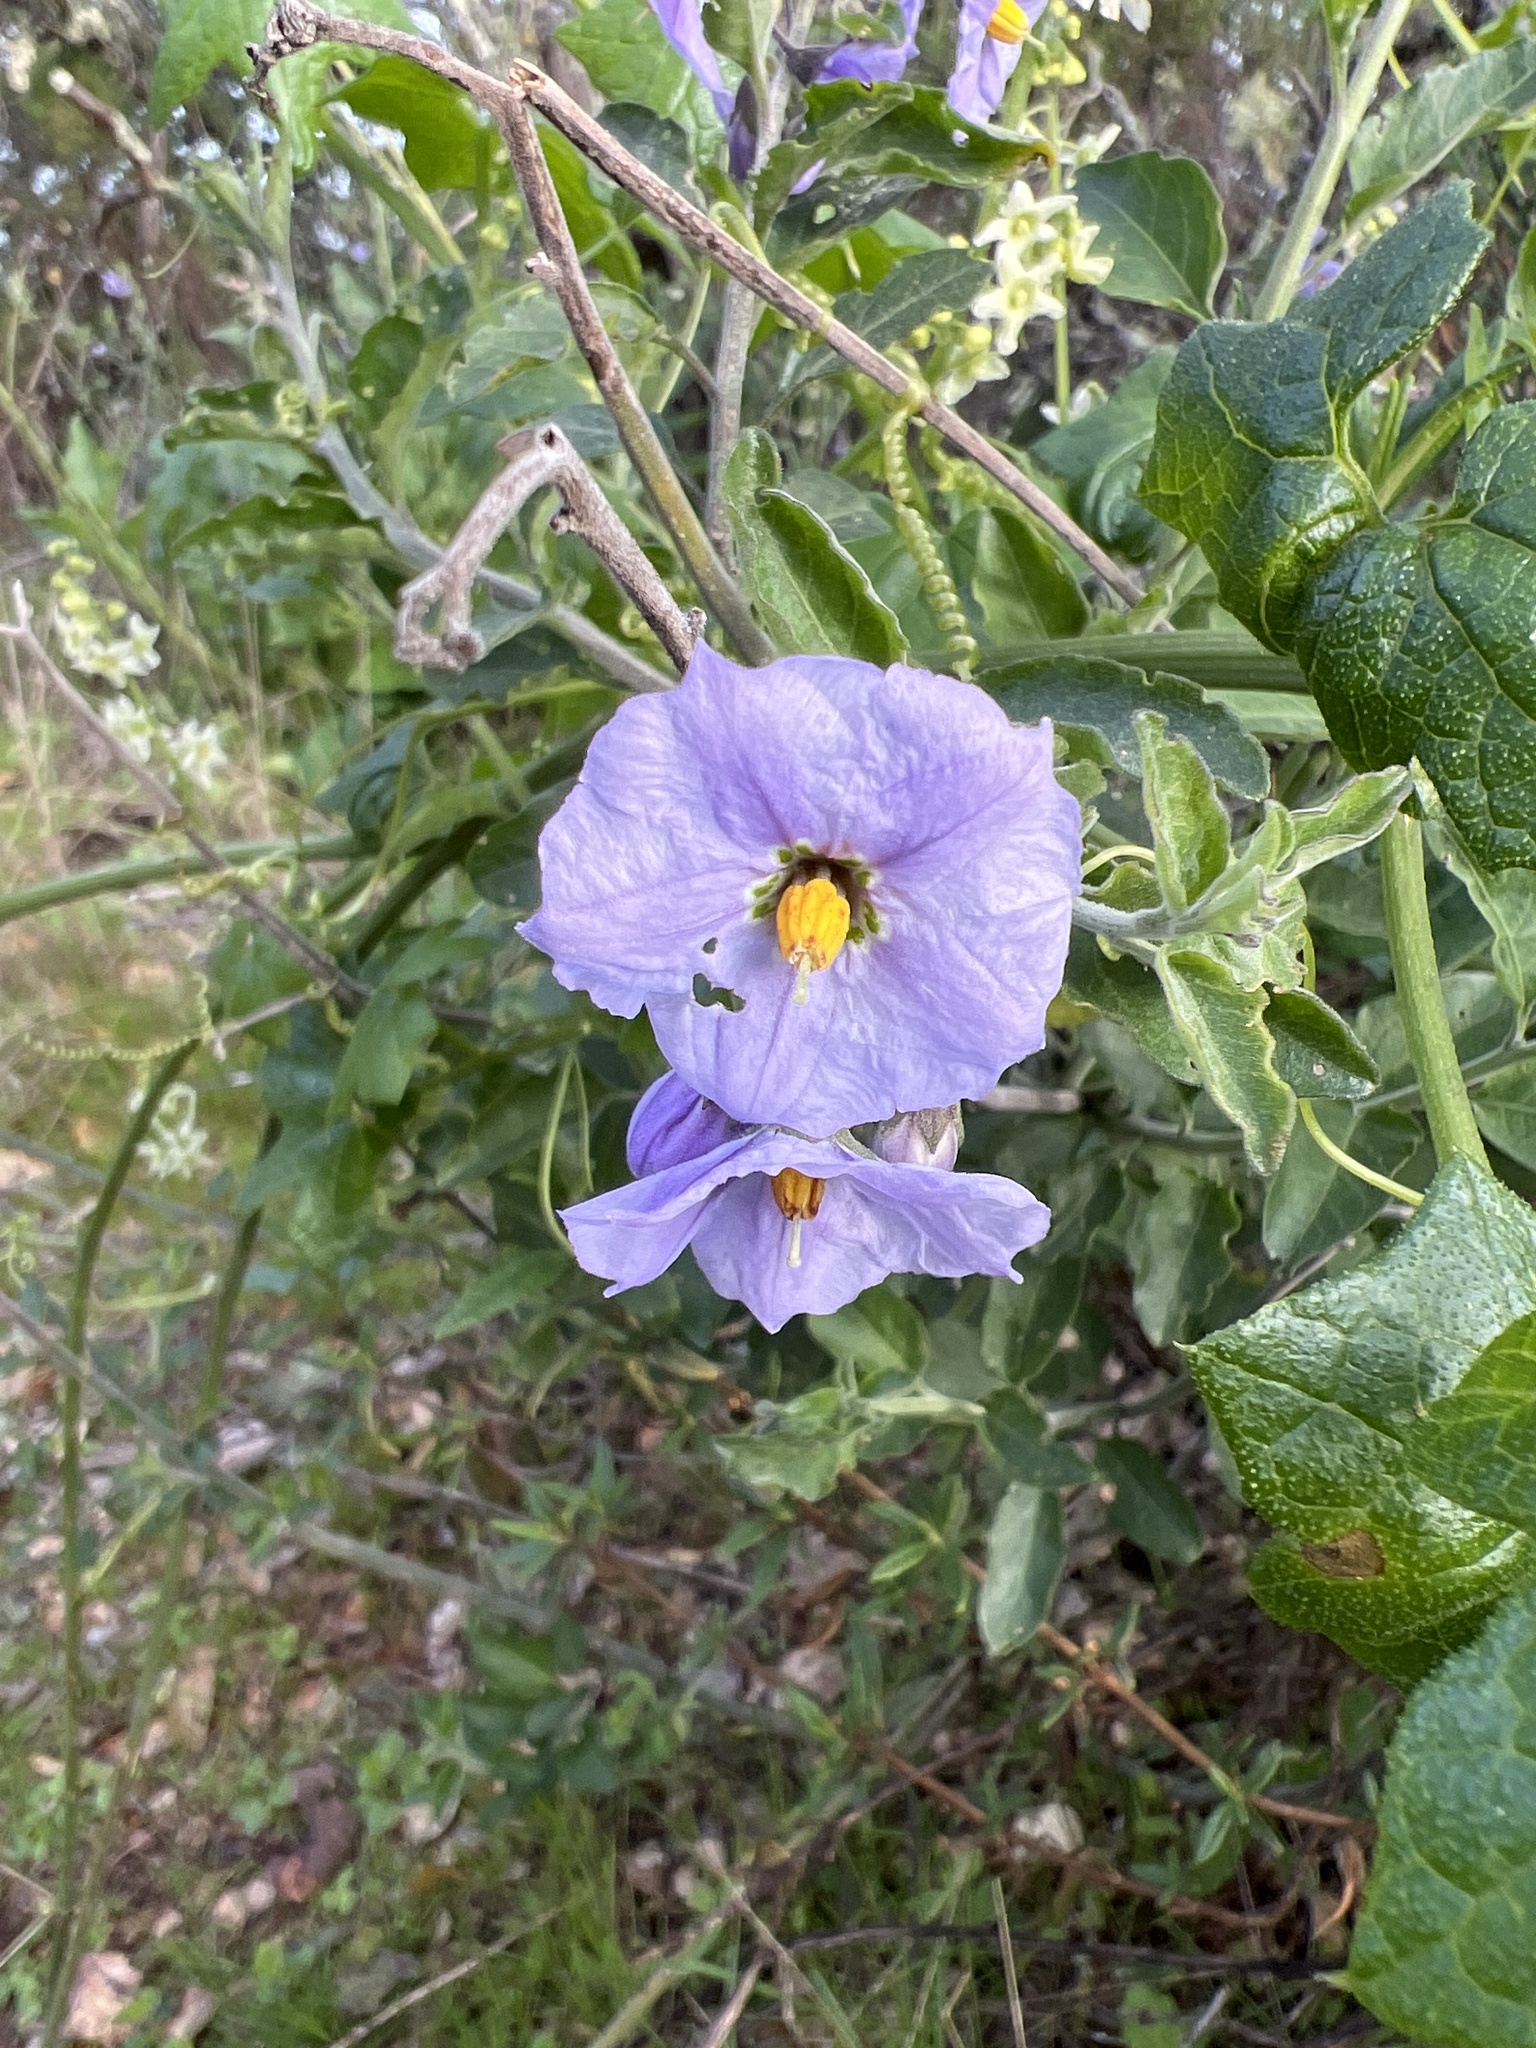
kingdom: Plantae
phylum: Tracheophyta
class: Magnoliopsida
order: Solanales
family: Solanaceae
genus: Solanum
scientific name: Solanum umbelliferum
